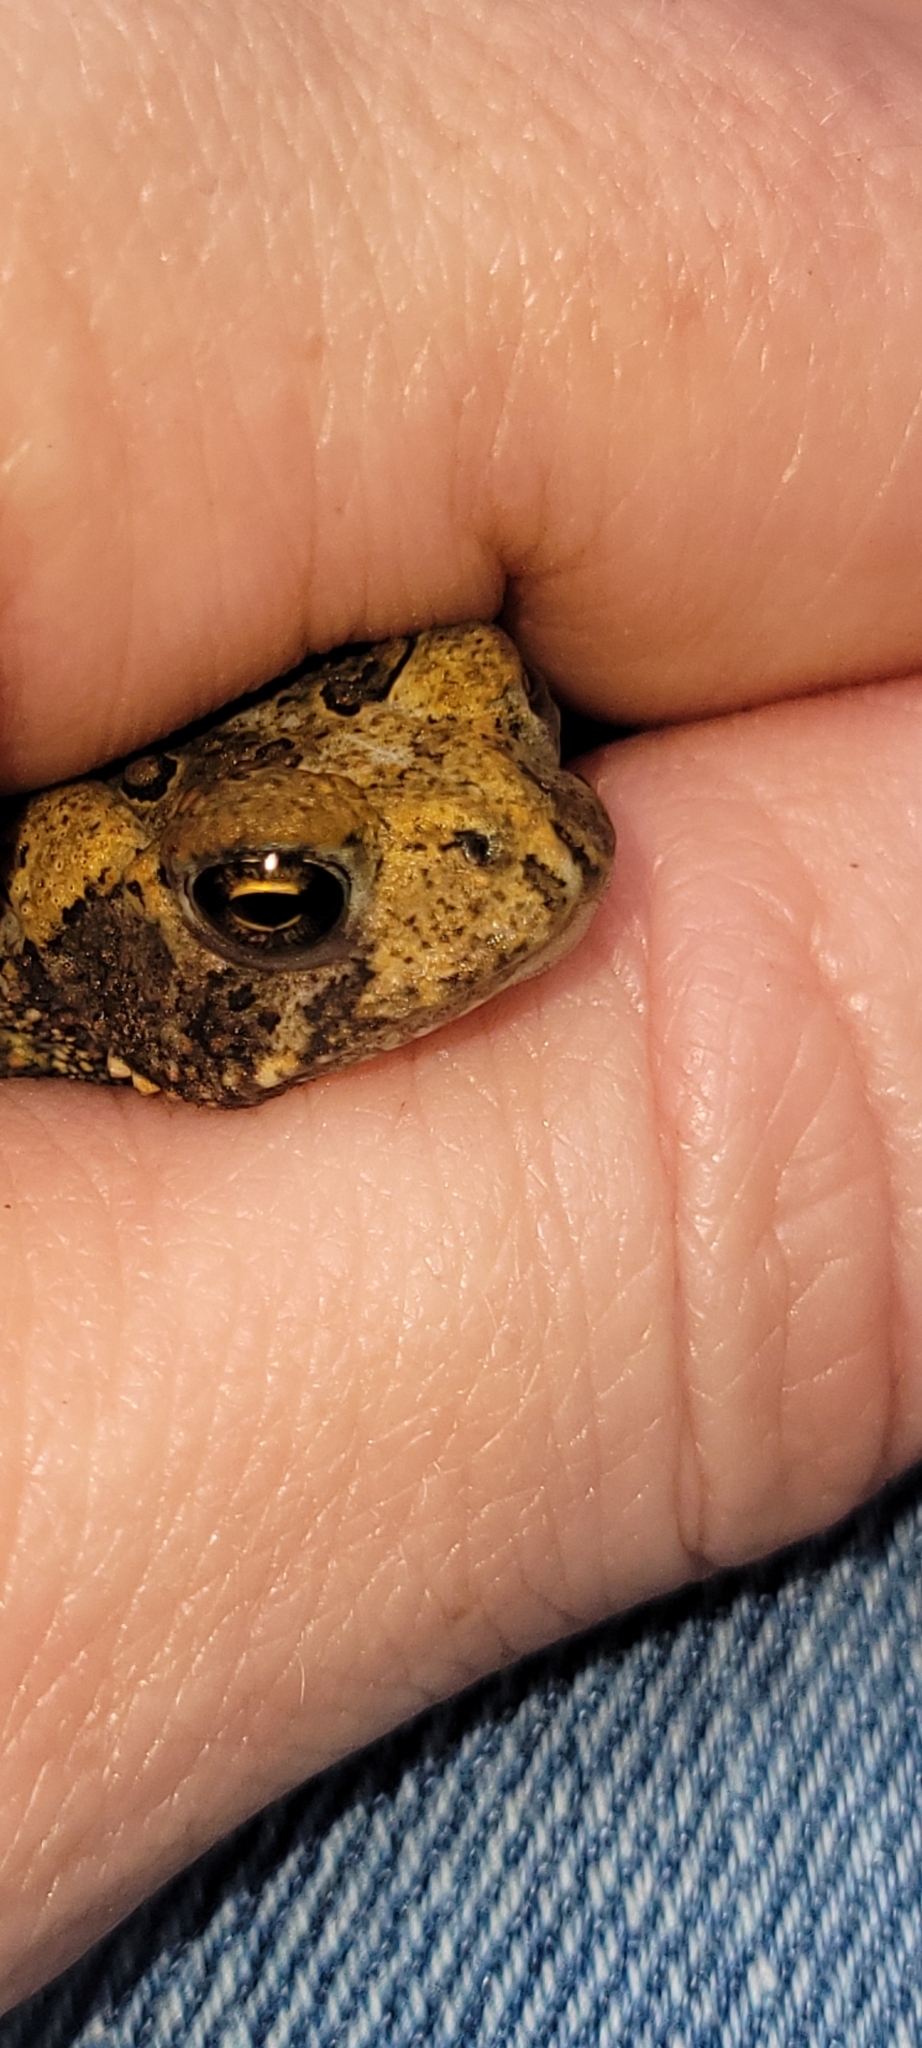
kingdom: Animalia
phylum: Chordata
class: Amphibia
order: Anura
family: Bufonidae
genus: Anaxyrus
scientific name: Anaxyrus americanus
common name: American toad
